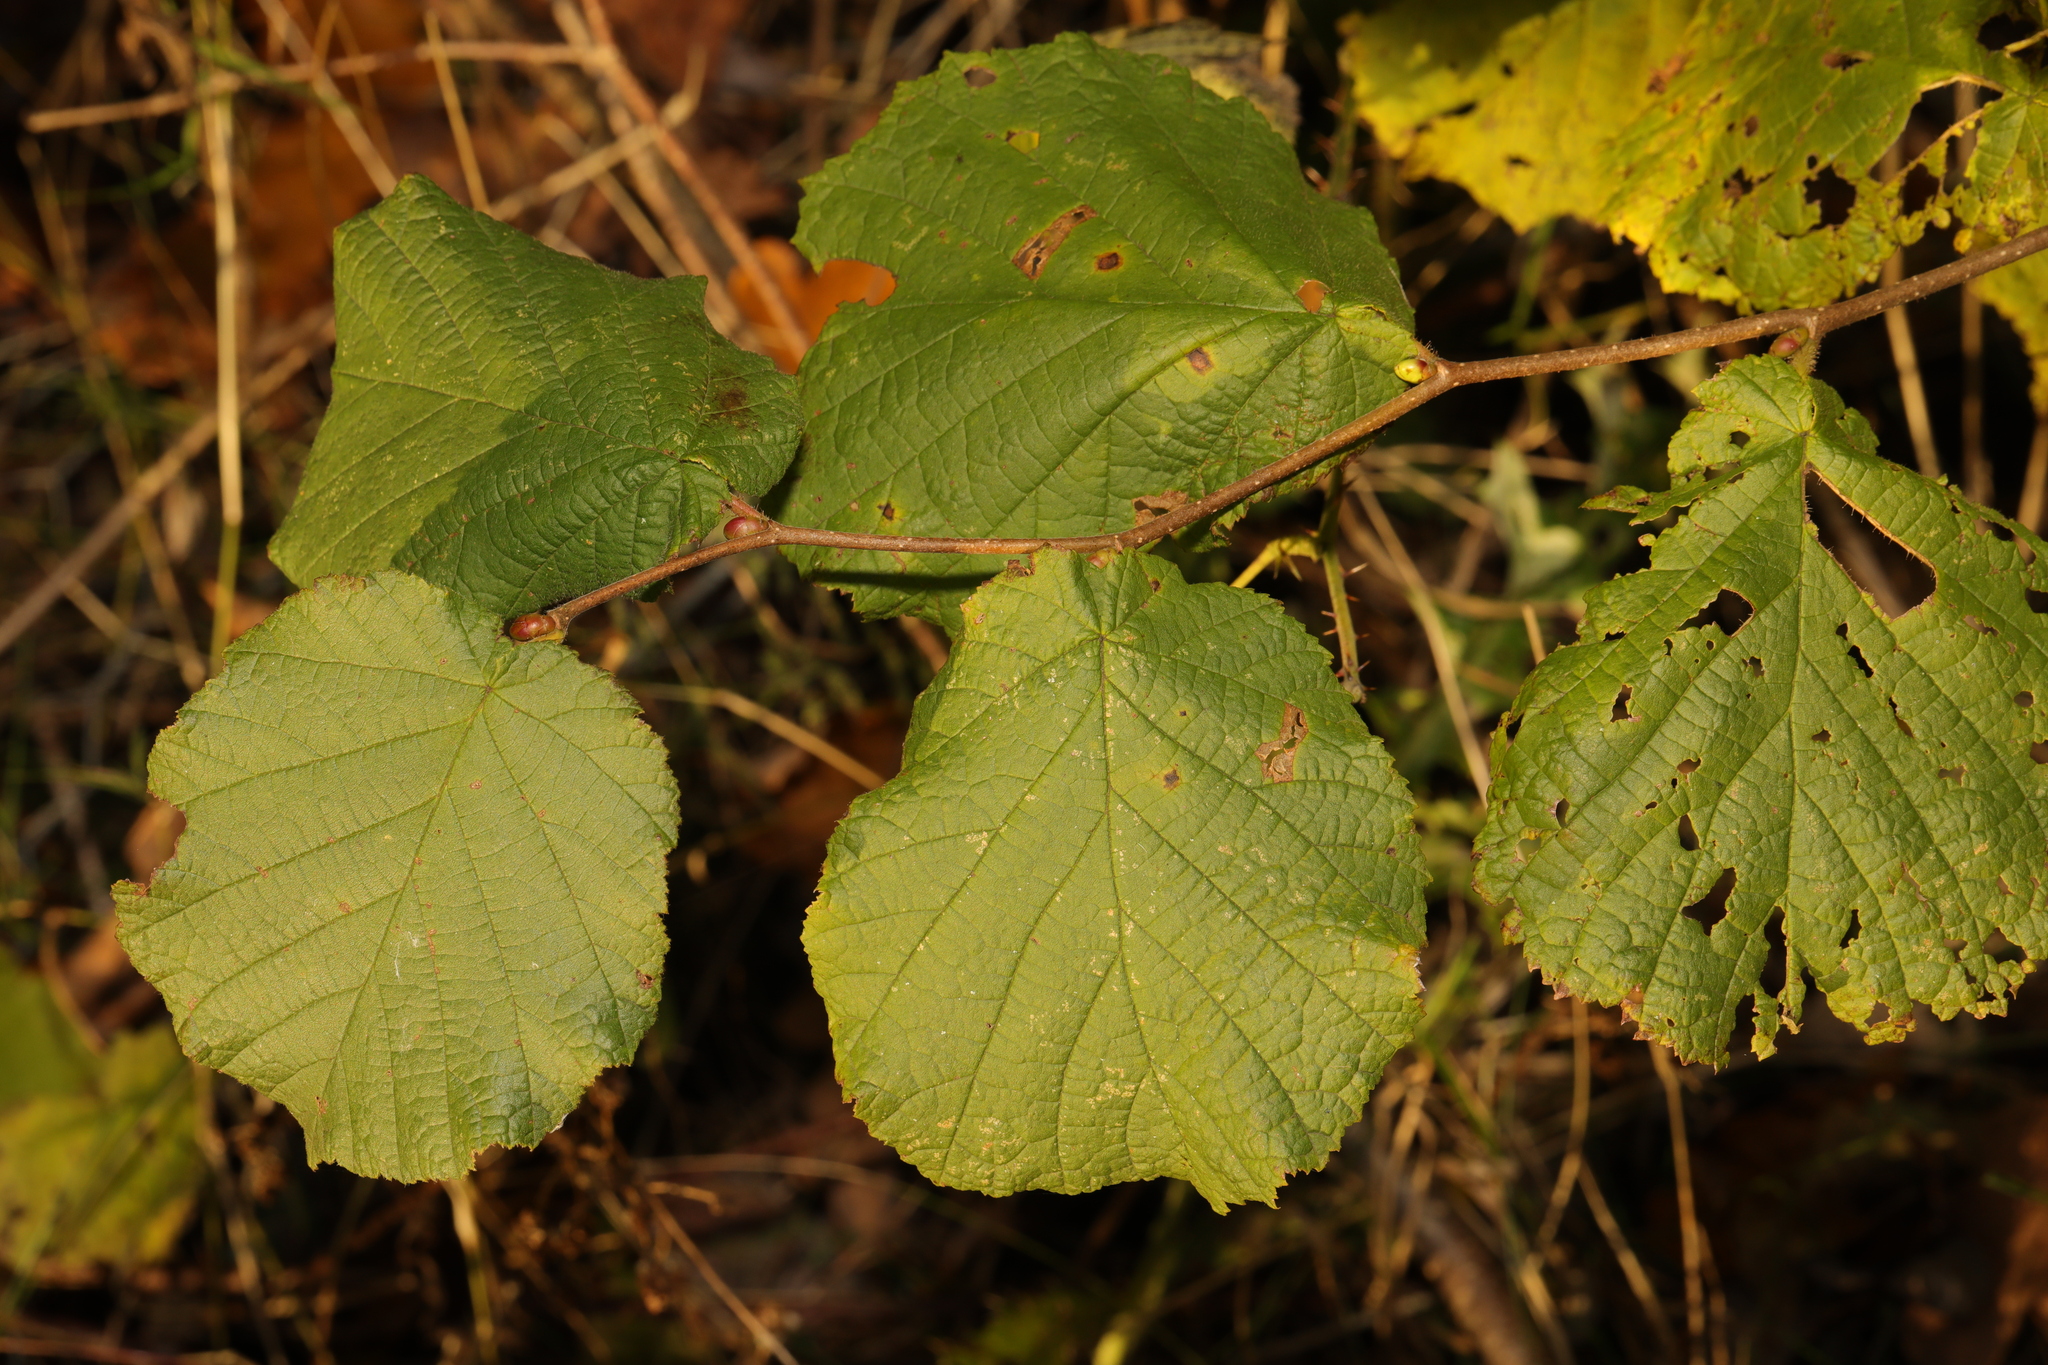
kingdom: Plantae
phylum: Tracheophyta
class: Magnoliopsida
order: Fagales
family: Betulaceae
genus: Corylus
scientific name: Corylus avellana
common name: European hazel
